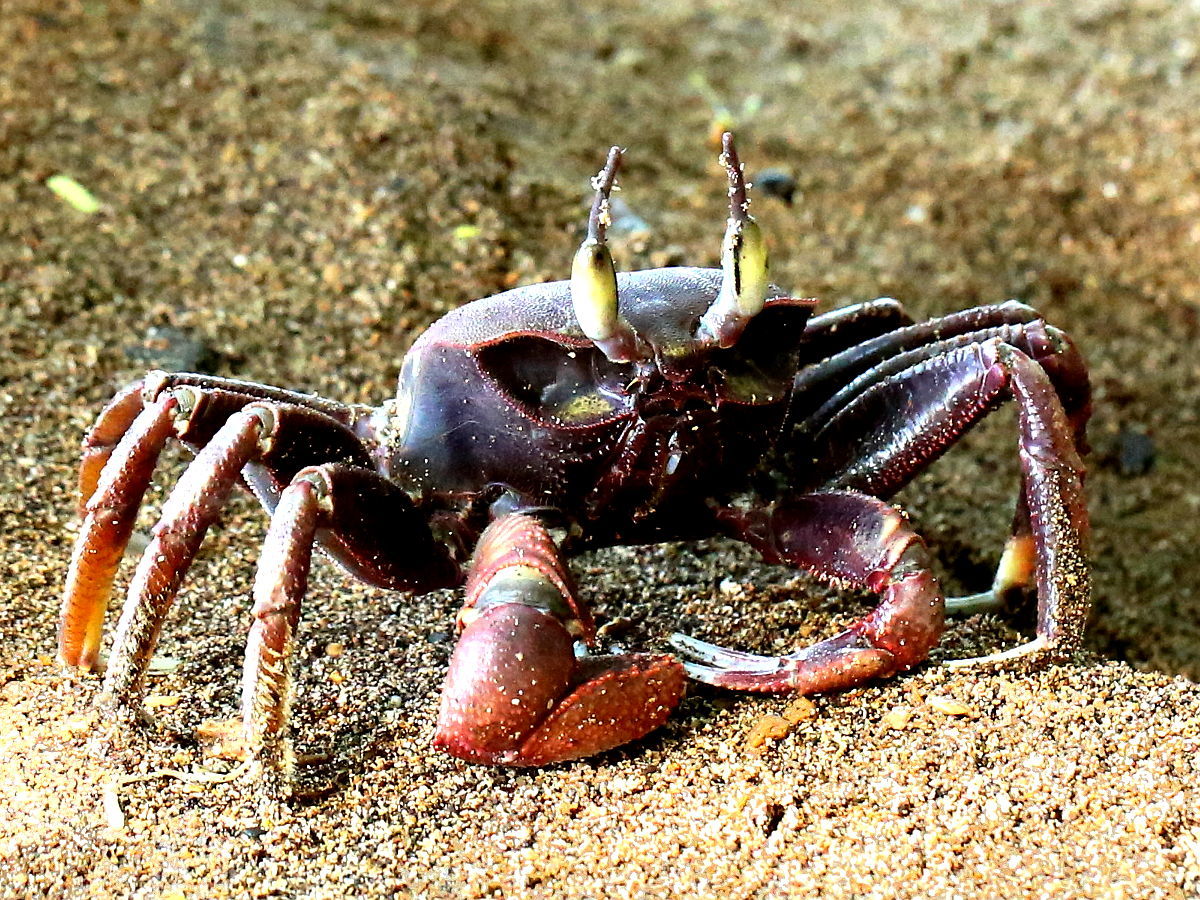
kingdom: Animalia
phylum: Arthropoda
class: Malacostraca
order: Decapoda
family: Ocypodidae
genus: Ocypode
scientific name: Ocypode ceratophthalmus
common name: Indo-pacific ghost crab
